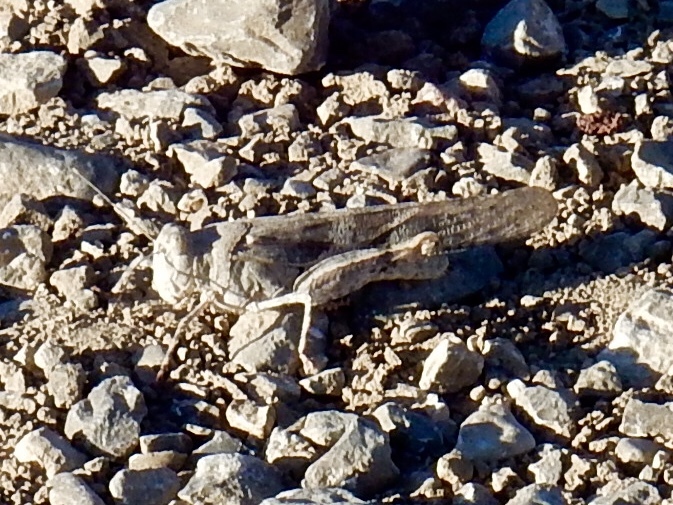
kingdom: Animalia
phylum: Arthropoda
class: Insecta
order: Orthoptera
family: Acrididae
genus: Trimerotropis
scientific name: Trimerotropis pallidipennis
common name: Pallid-winged grasshopper
